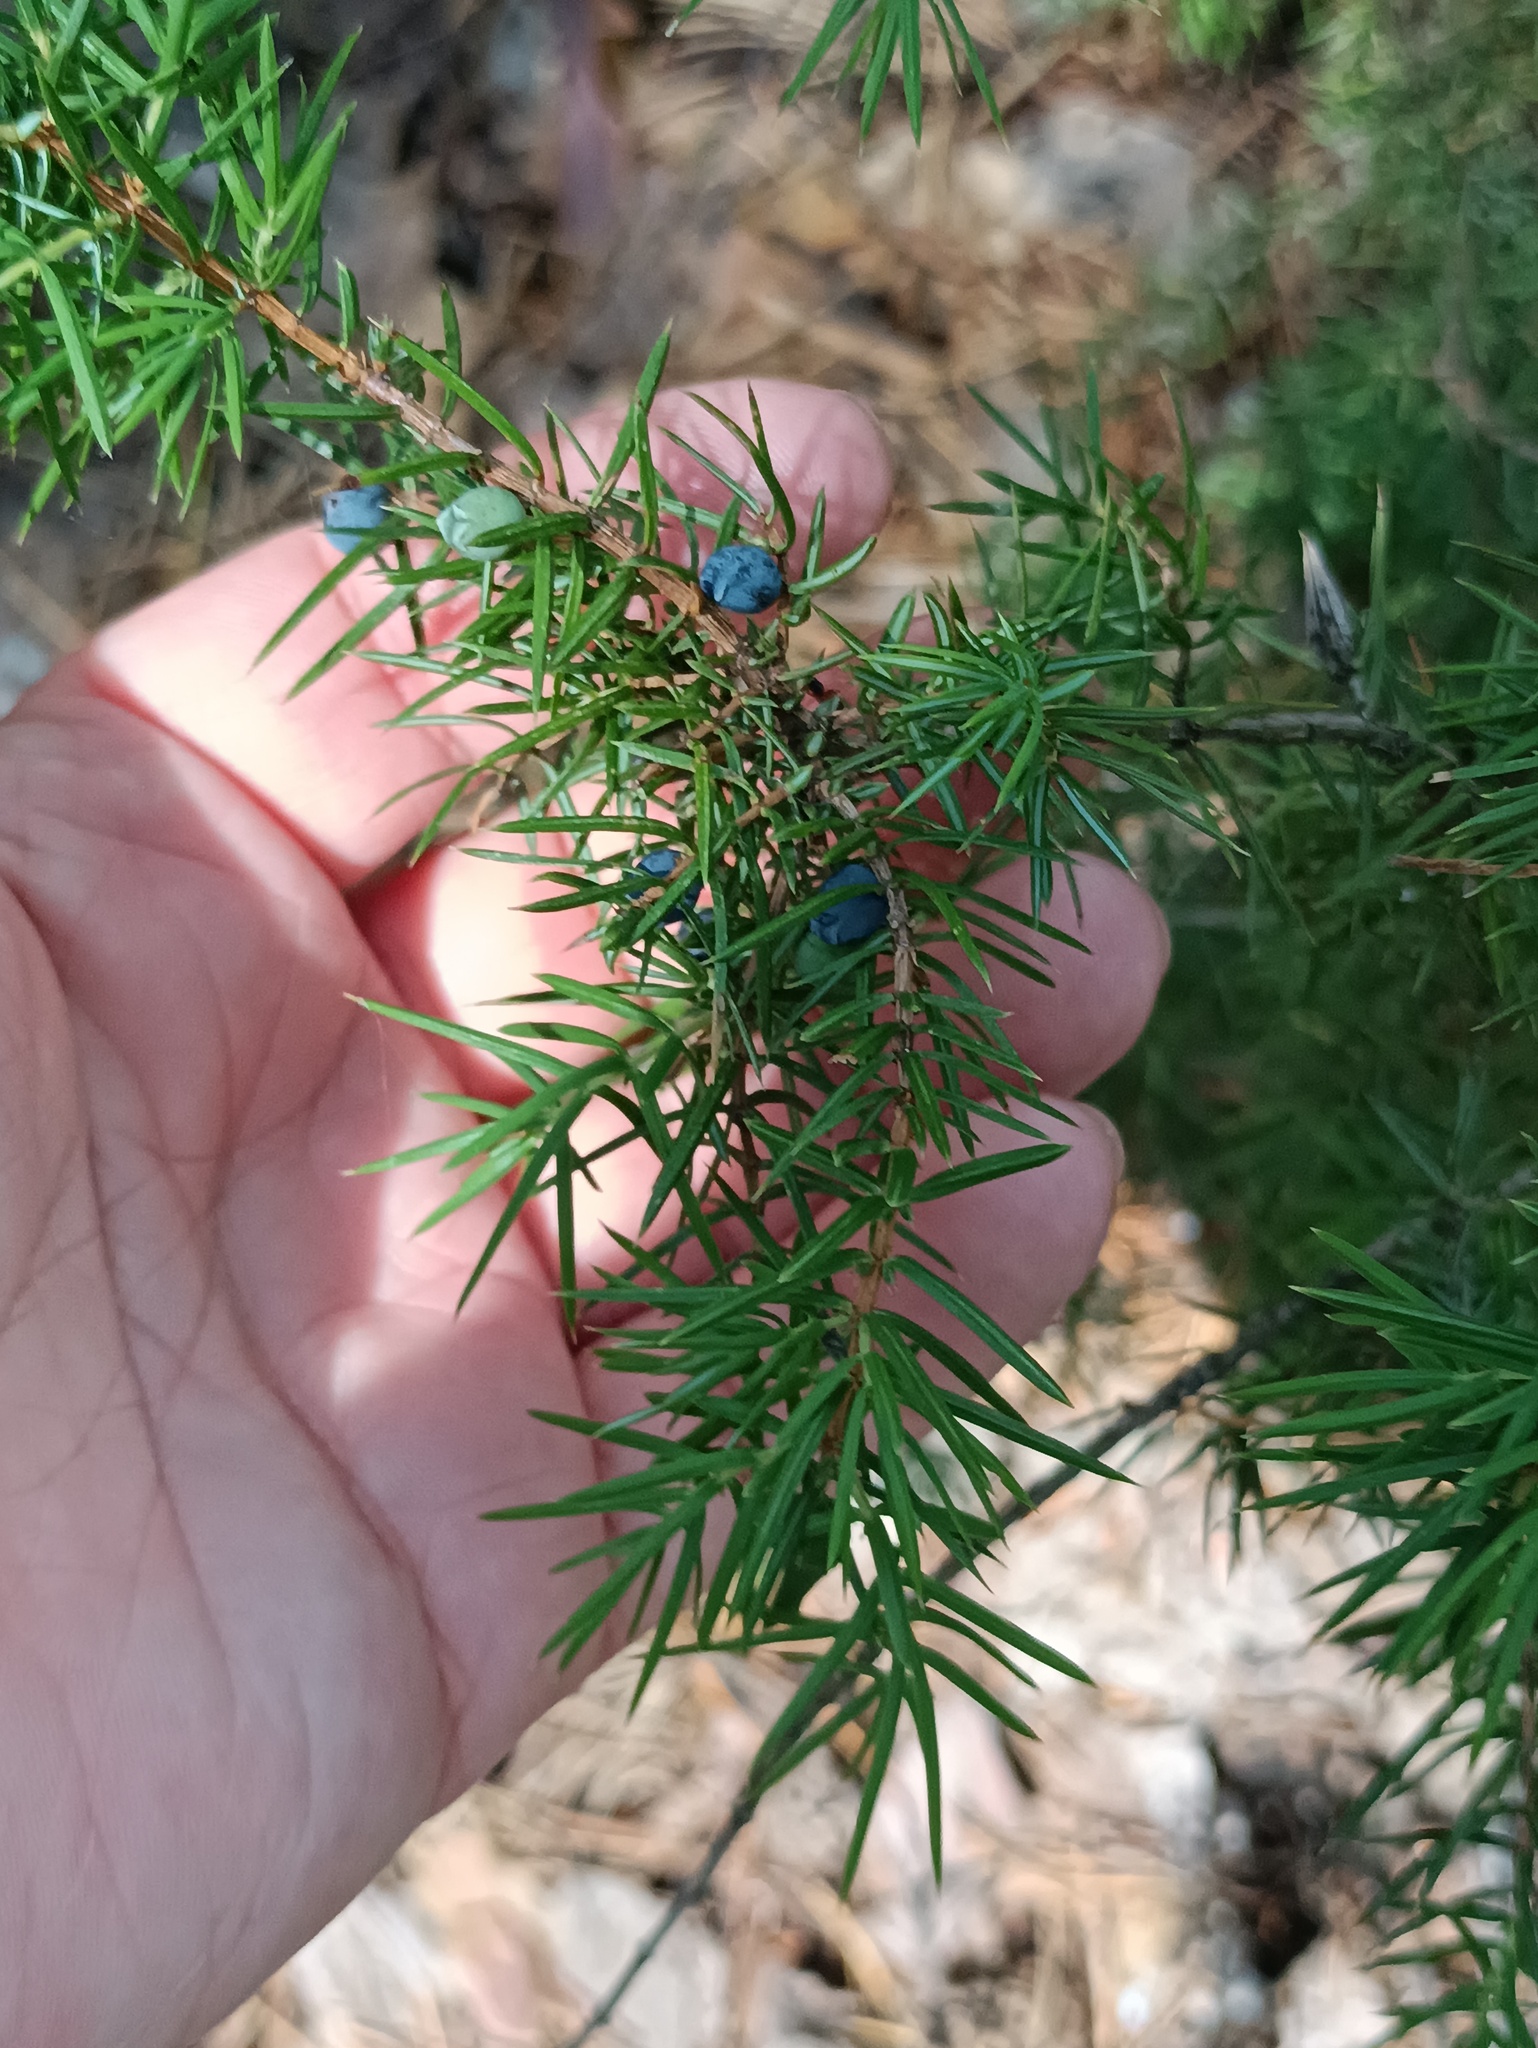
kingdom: Plantae
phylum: Tracheophyta
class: Pinopsida
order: Pinales
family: Cupressaceae
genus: Juniperus
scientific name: Juniperus communis
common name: Common juniper
